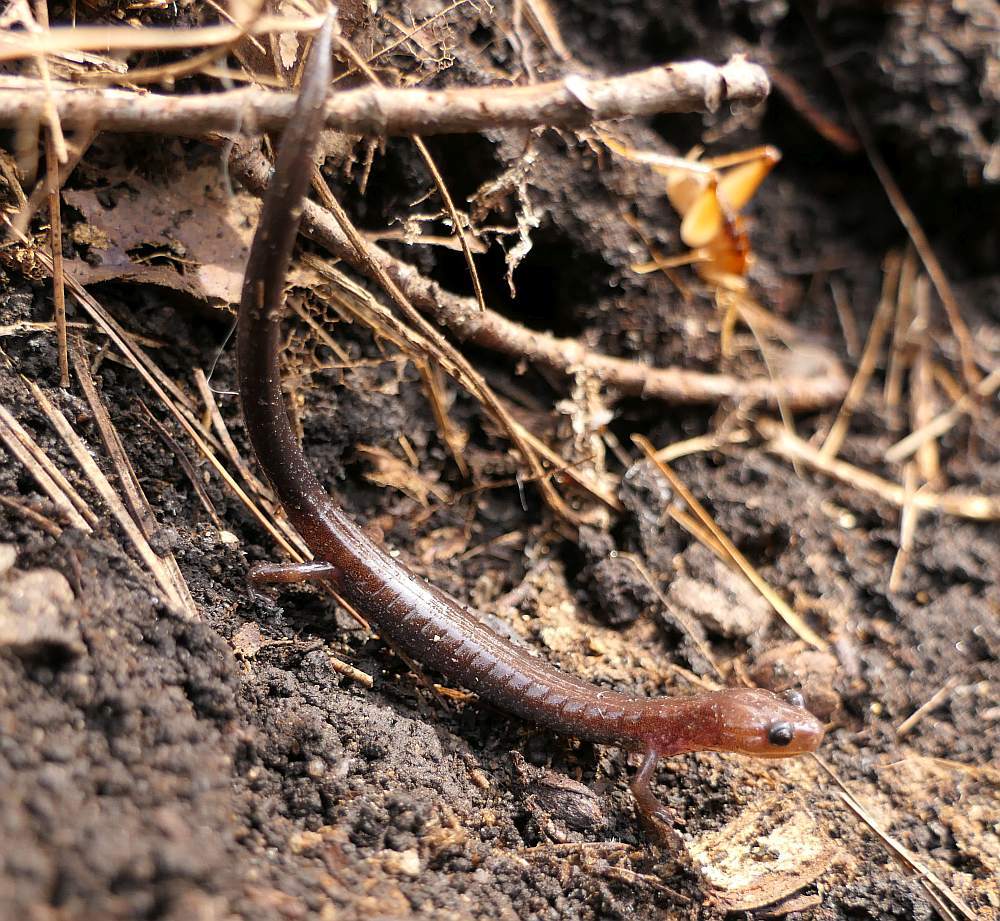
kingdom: Animalia
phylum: Chordata
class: Amphibia
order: Caudata
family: Plethodontidae
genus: Plethodon
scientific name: Plethodon cinereus
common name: Redback salamander
